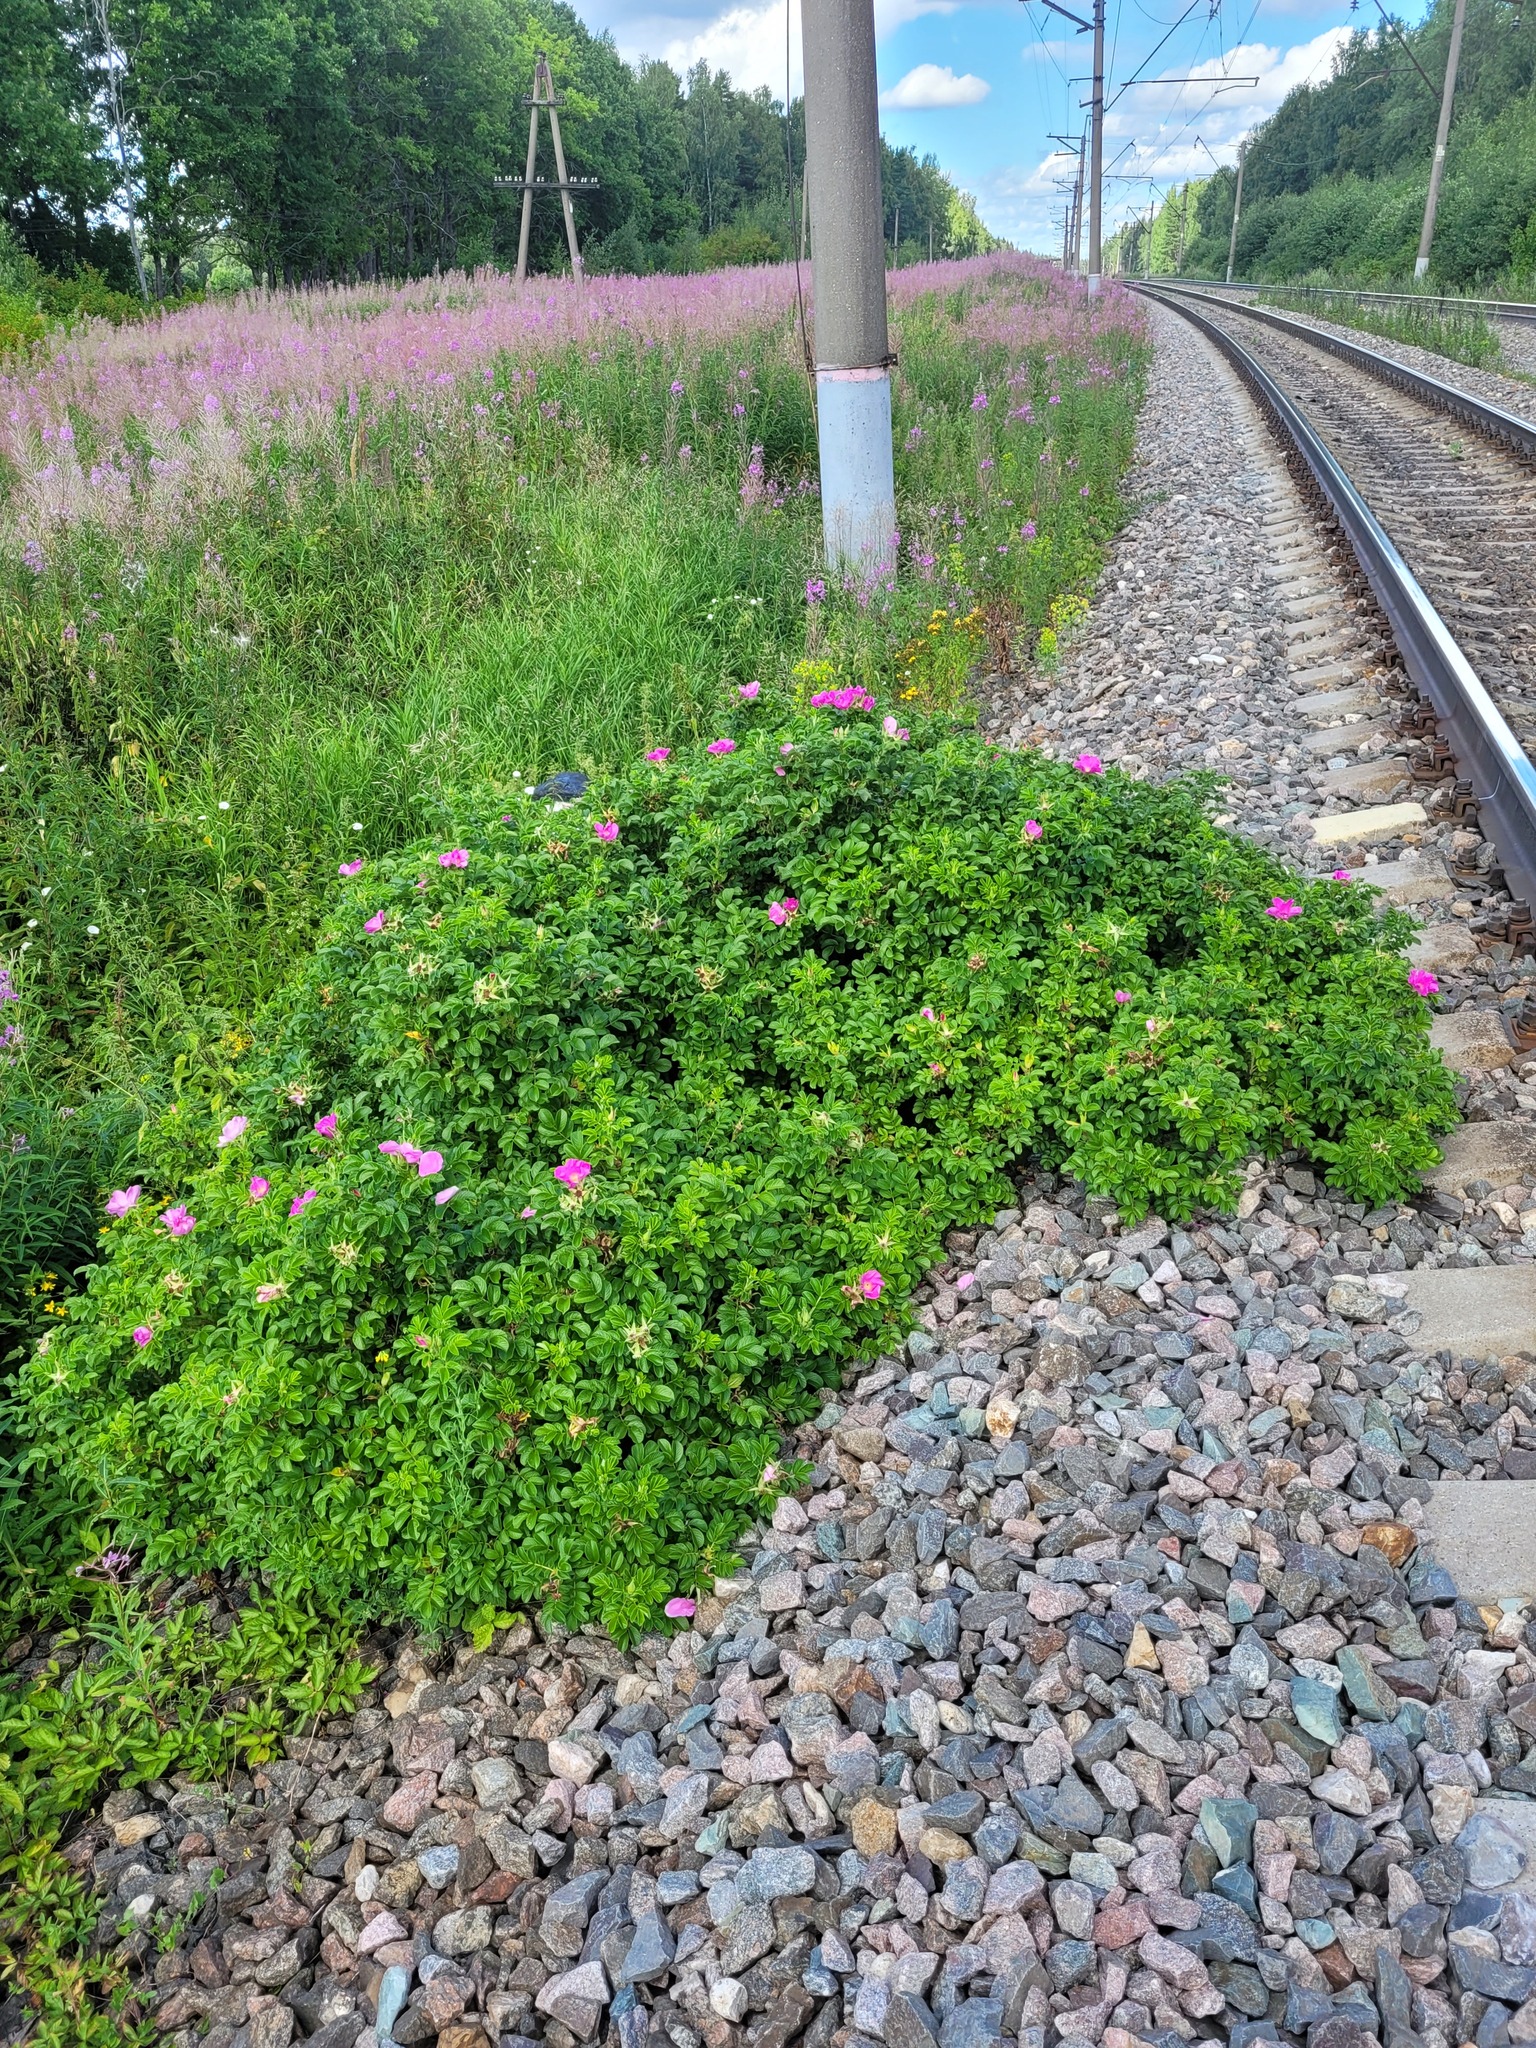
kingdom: Plantae
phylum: Tracheophyta
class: Magnoliopsida
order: Rosales
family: Rosaceae
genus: Rosa
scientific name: Rosa rugosa
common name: Japanese rose
